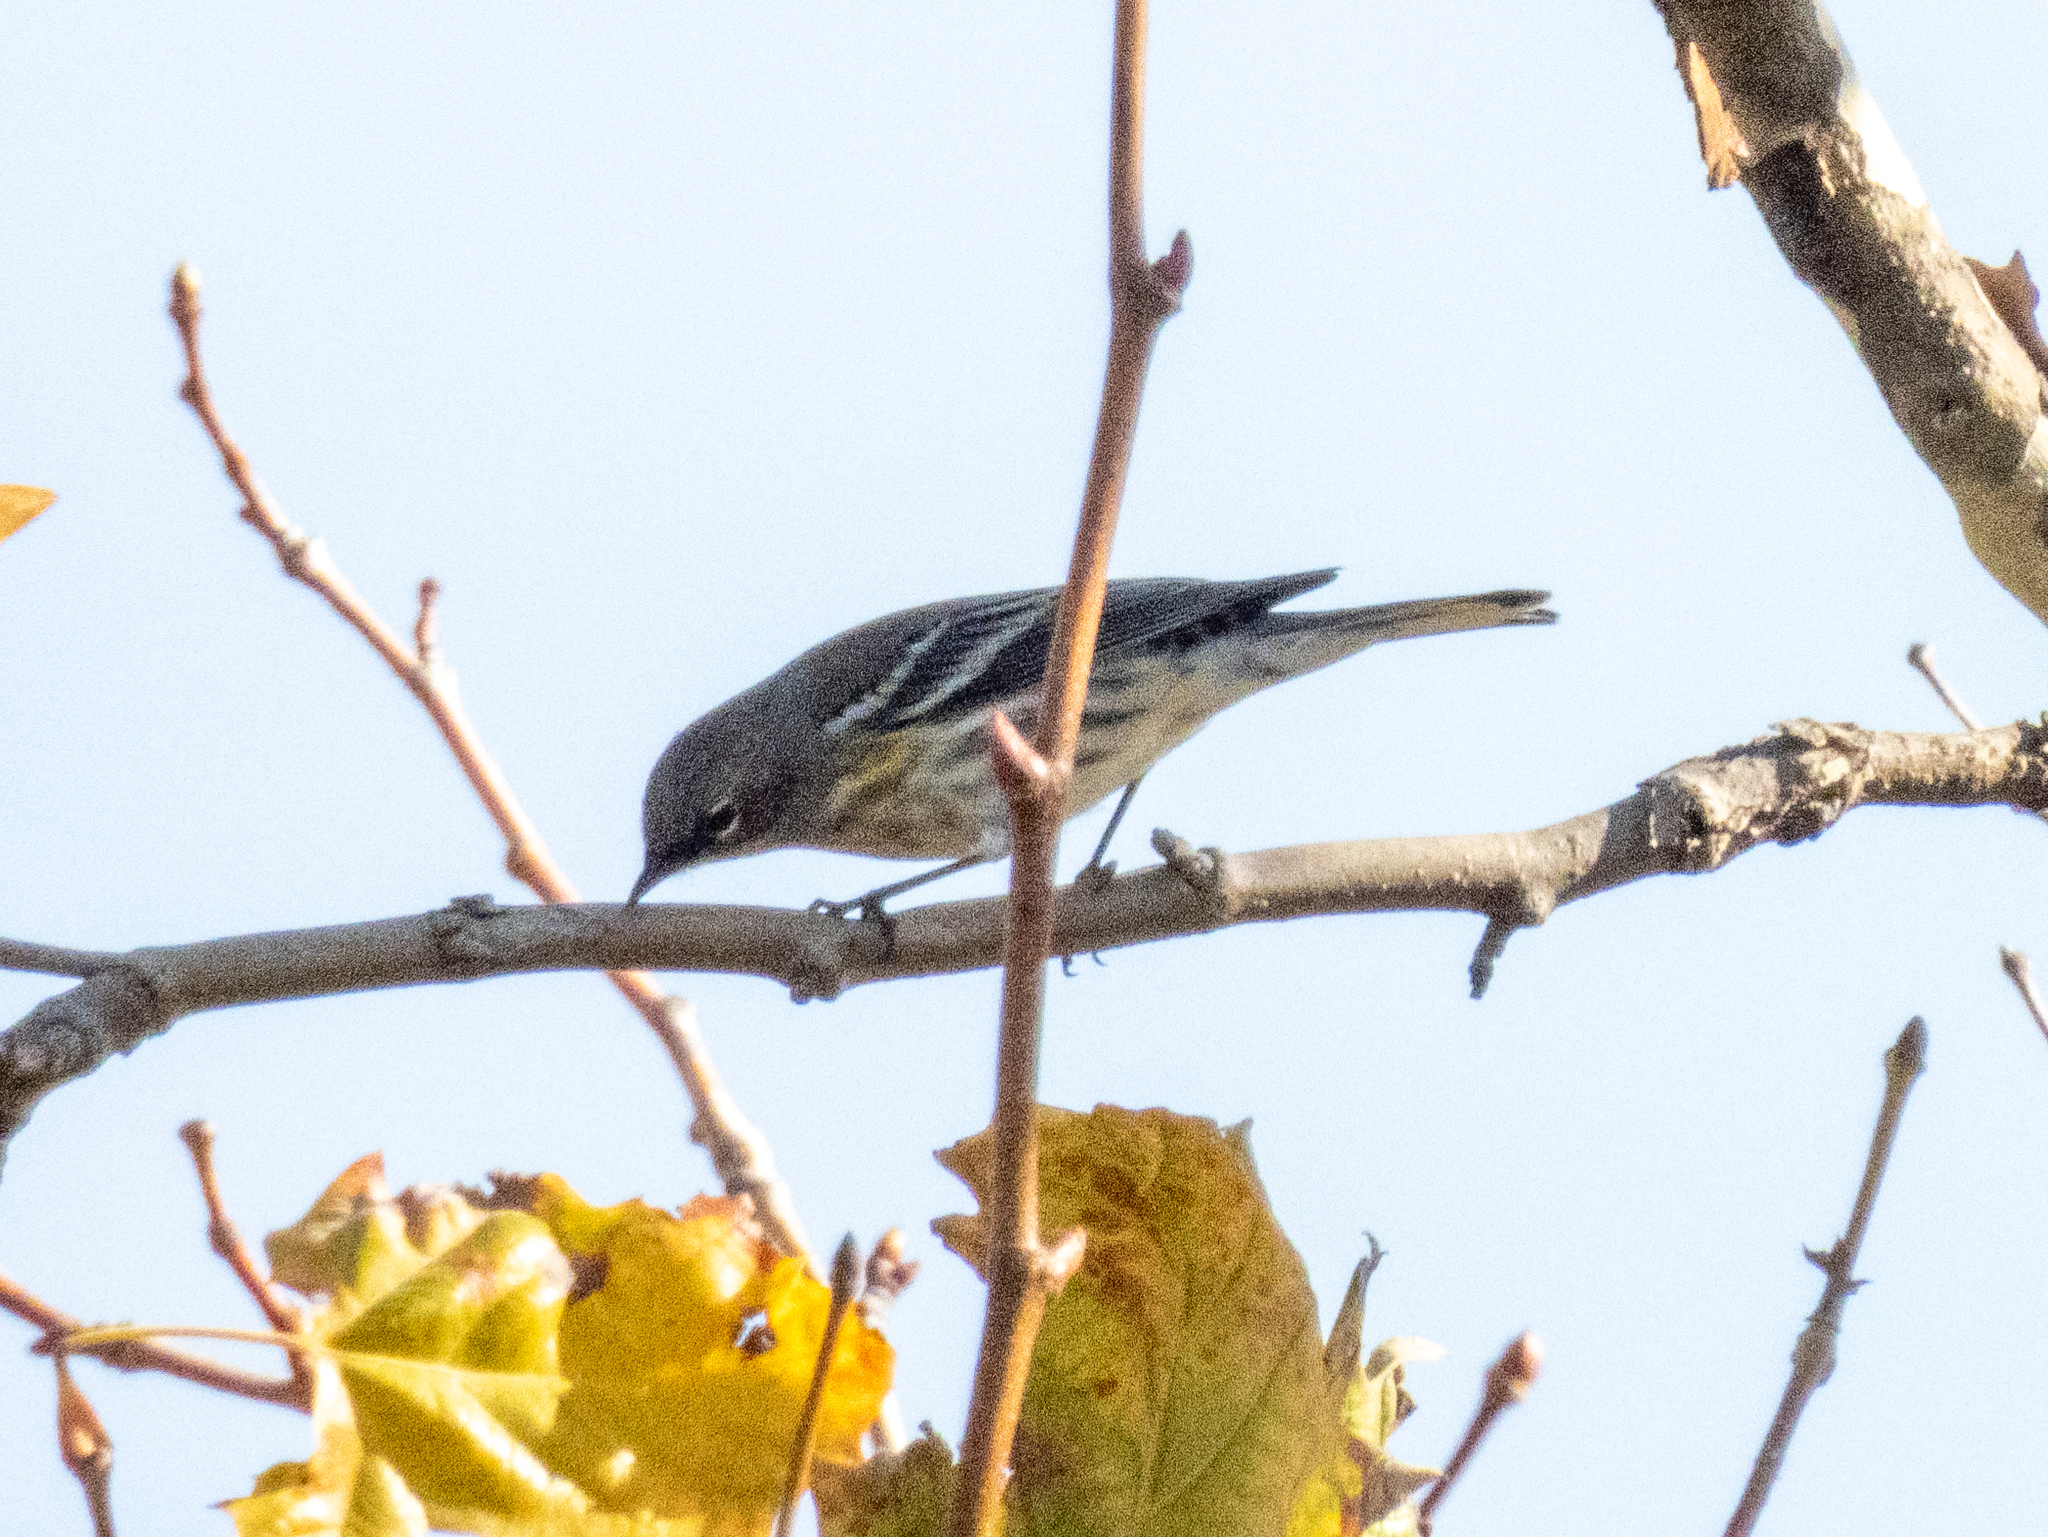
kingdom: Animalia
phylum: Chordata
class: Aves
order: Passeriformes
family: Parulidae
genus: Setophaga
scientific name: Setophaga coronata
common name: Myrtle warbler
